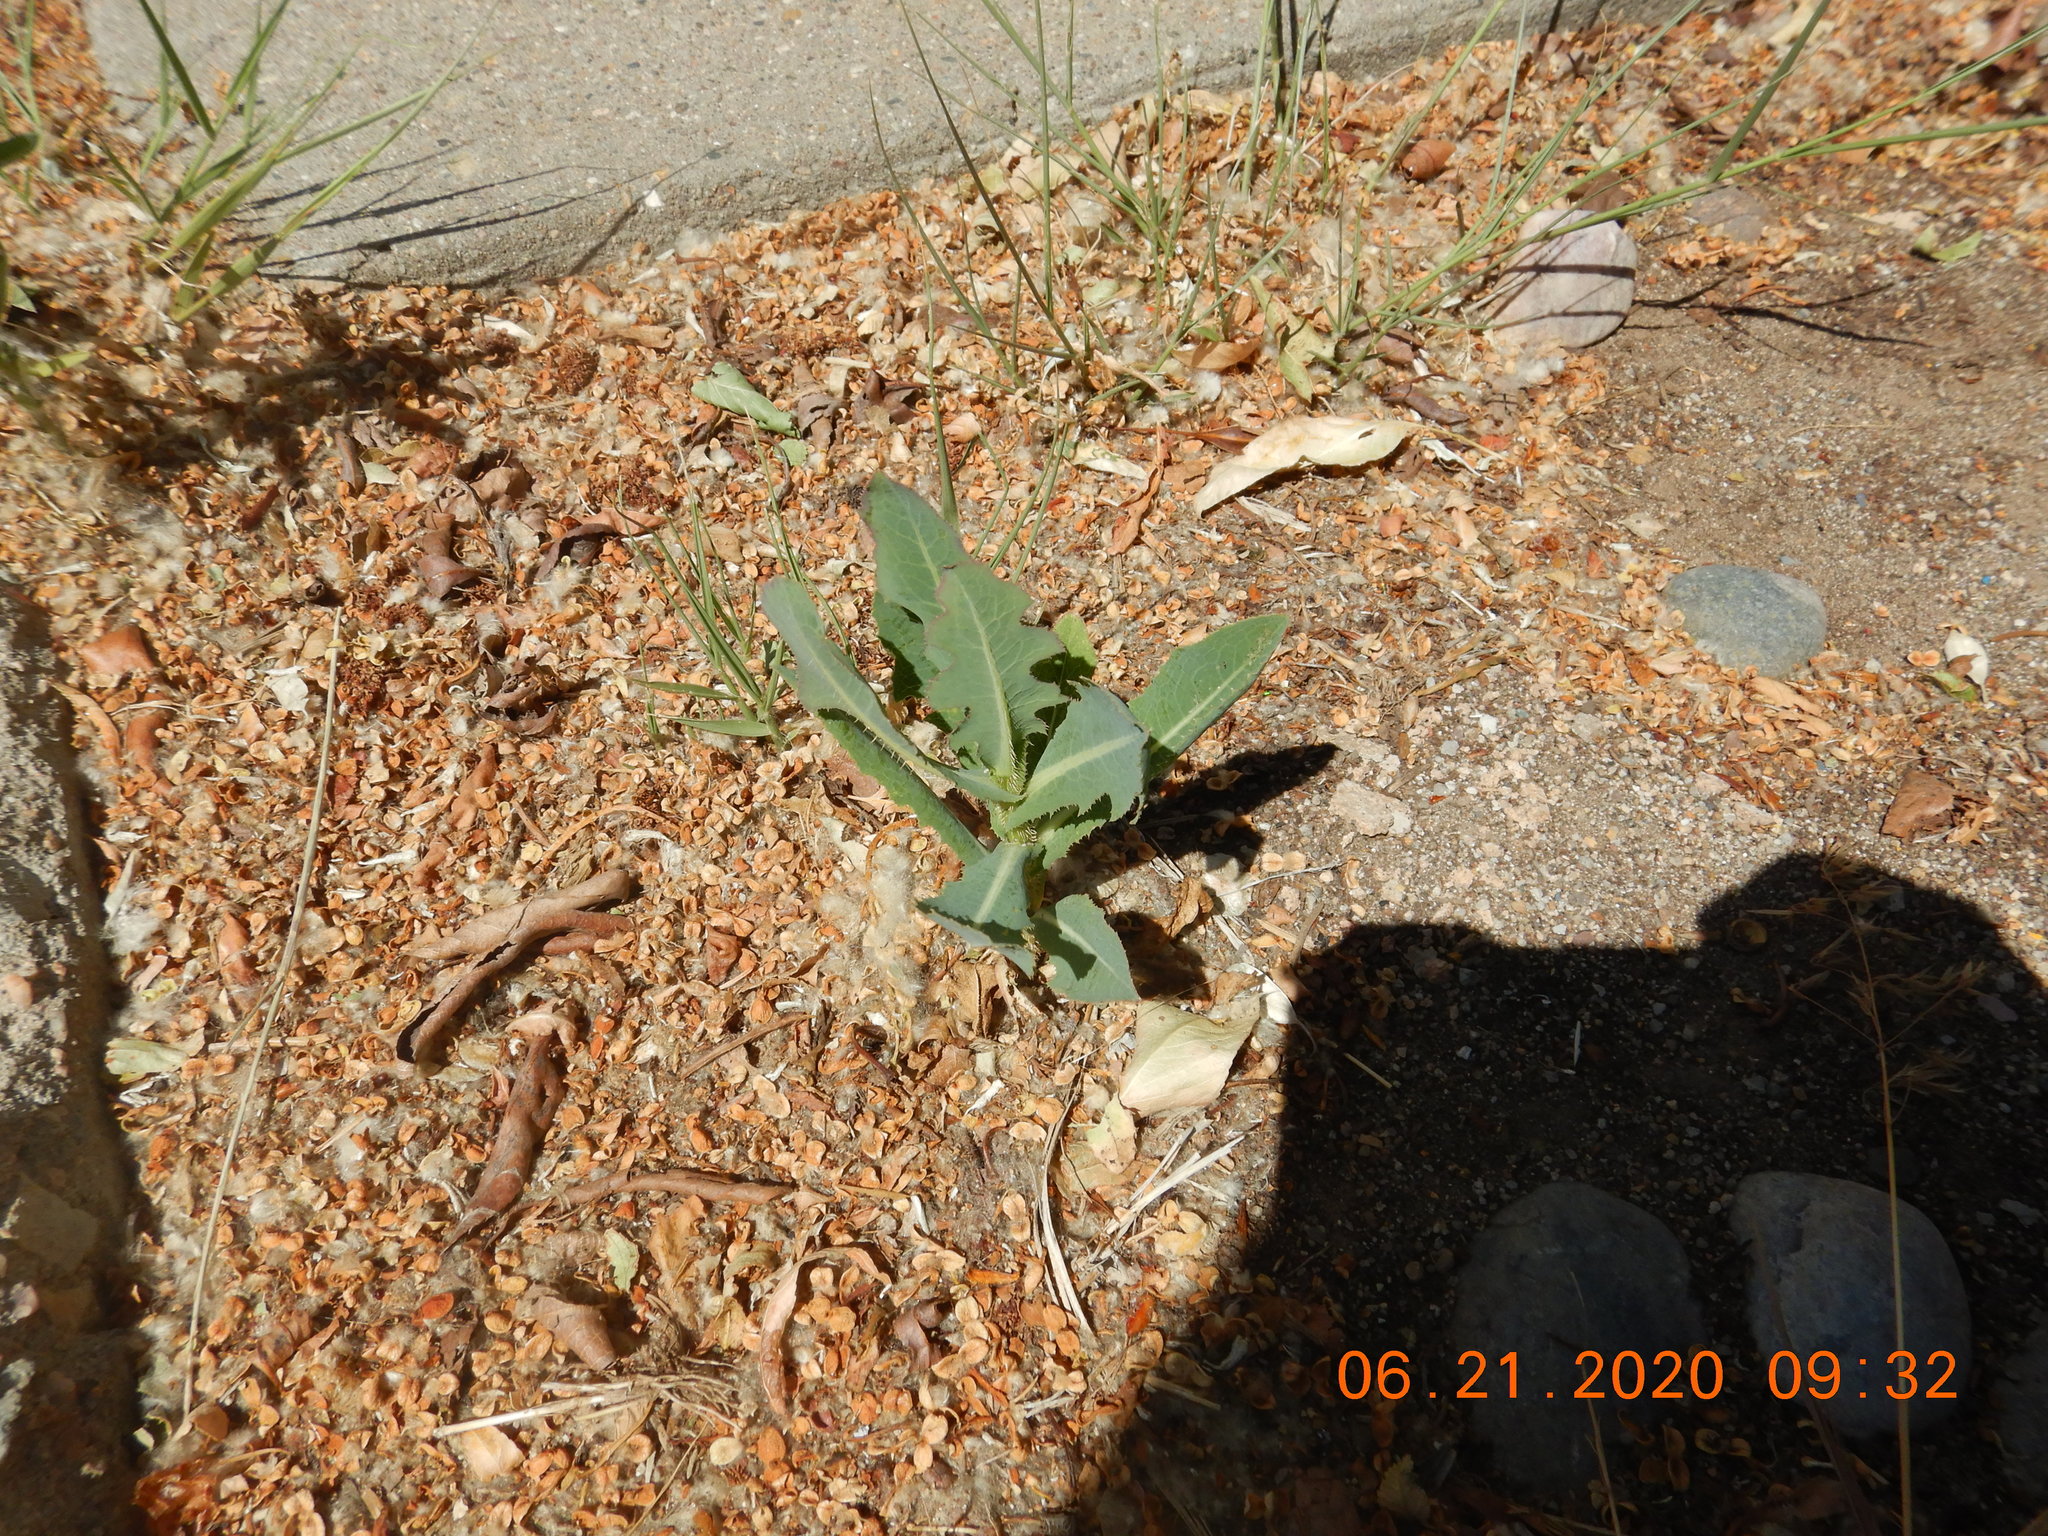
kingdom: Plantae
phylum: Tracheophyta
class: Magnoliopsida
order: Asterales
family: Asteraceae
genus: Lactuca
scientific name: Lactuca serriola
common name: Prickly lettuce
